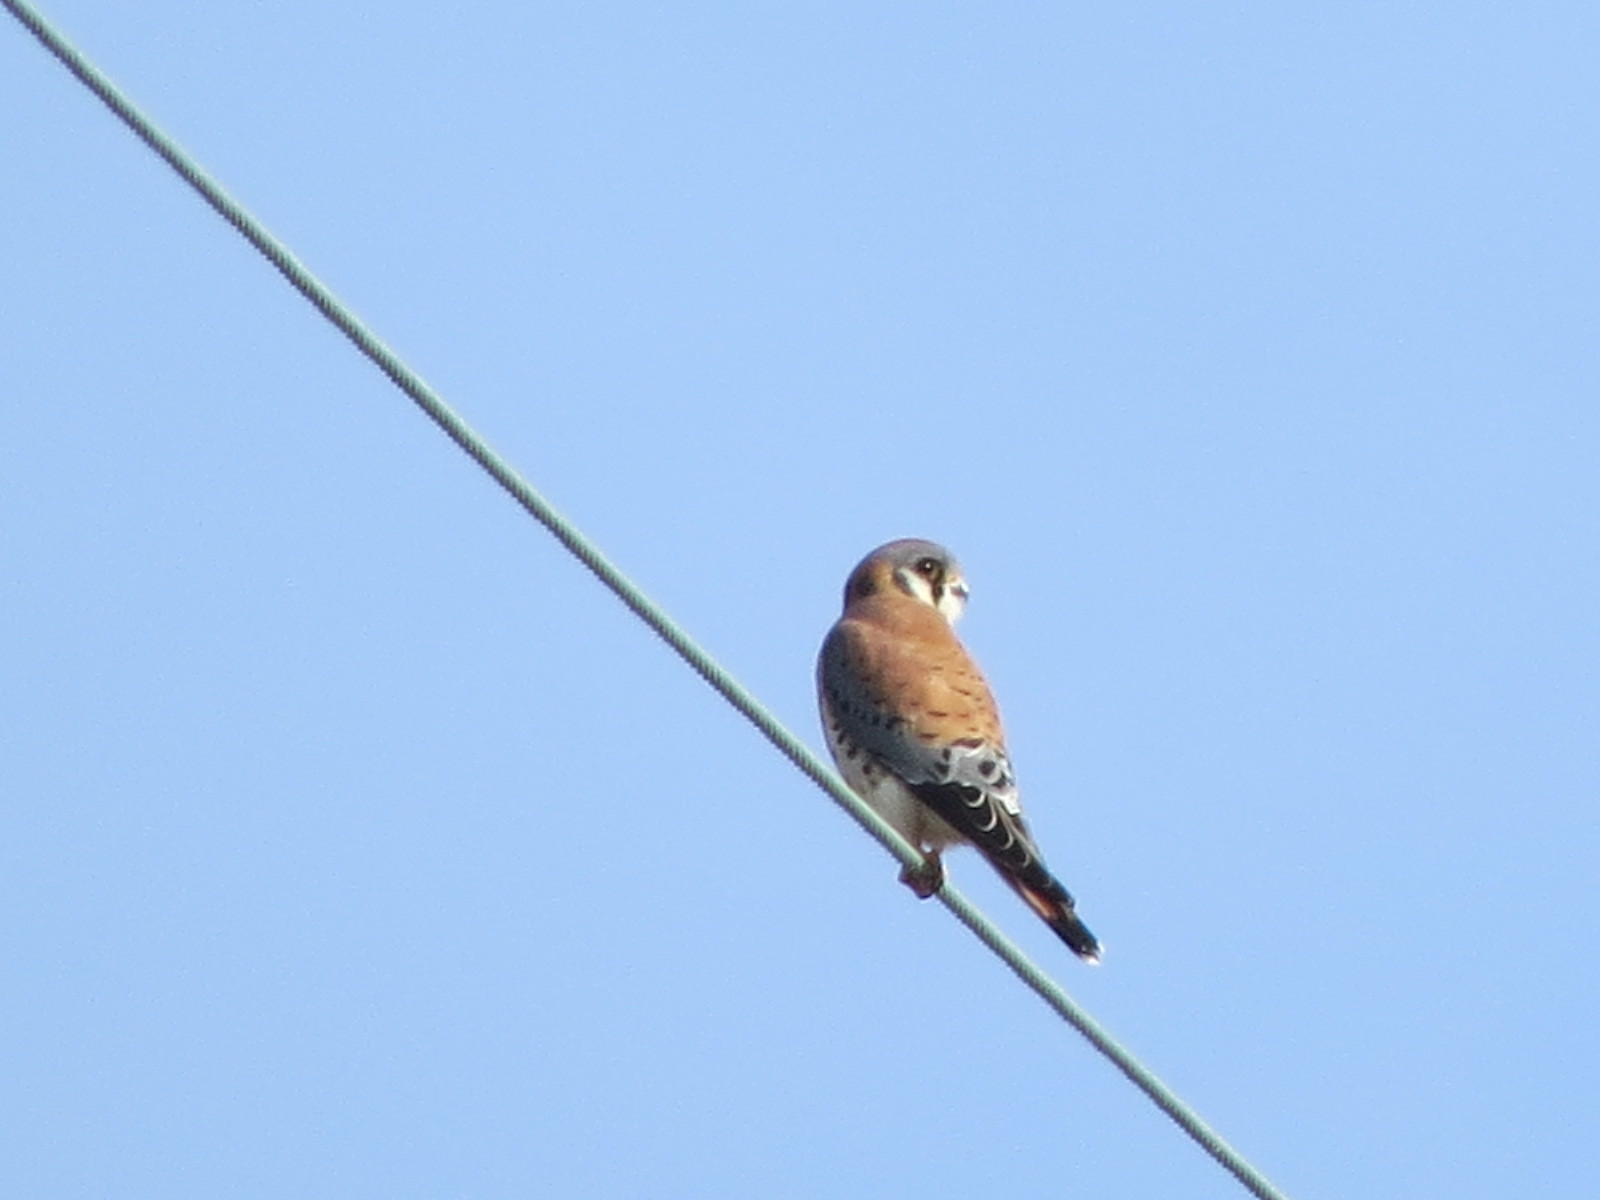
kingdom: Animalia
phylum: Chordata
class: Aves
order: Falconiformes
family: Falconidae
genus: Falco
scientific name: Falco sparverius
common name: American kestrel
